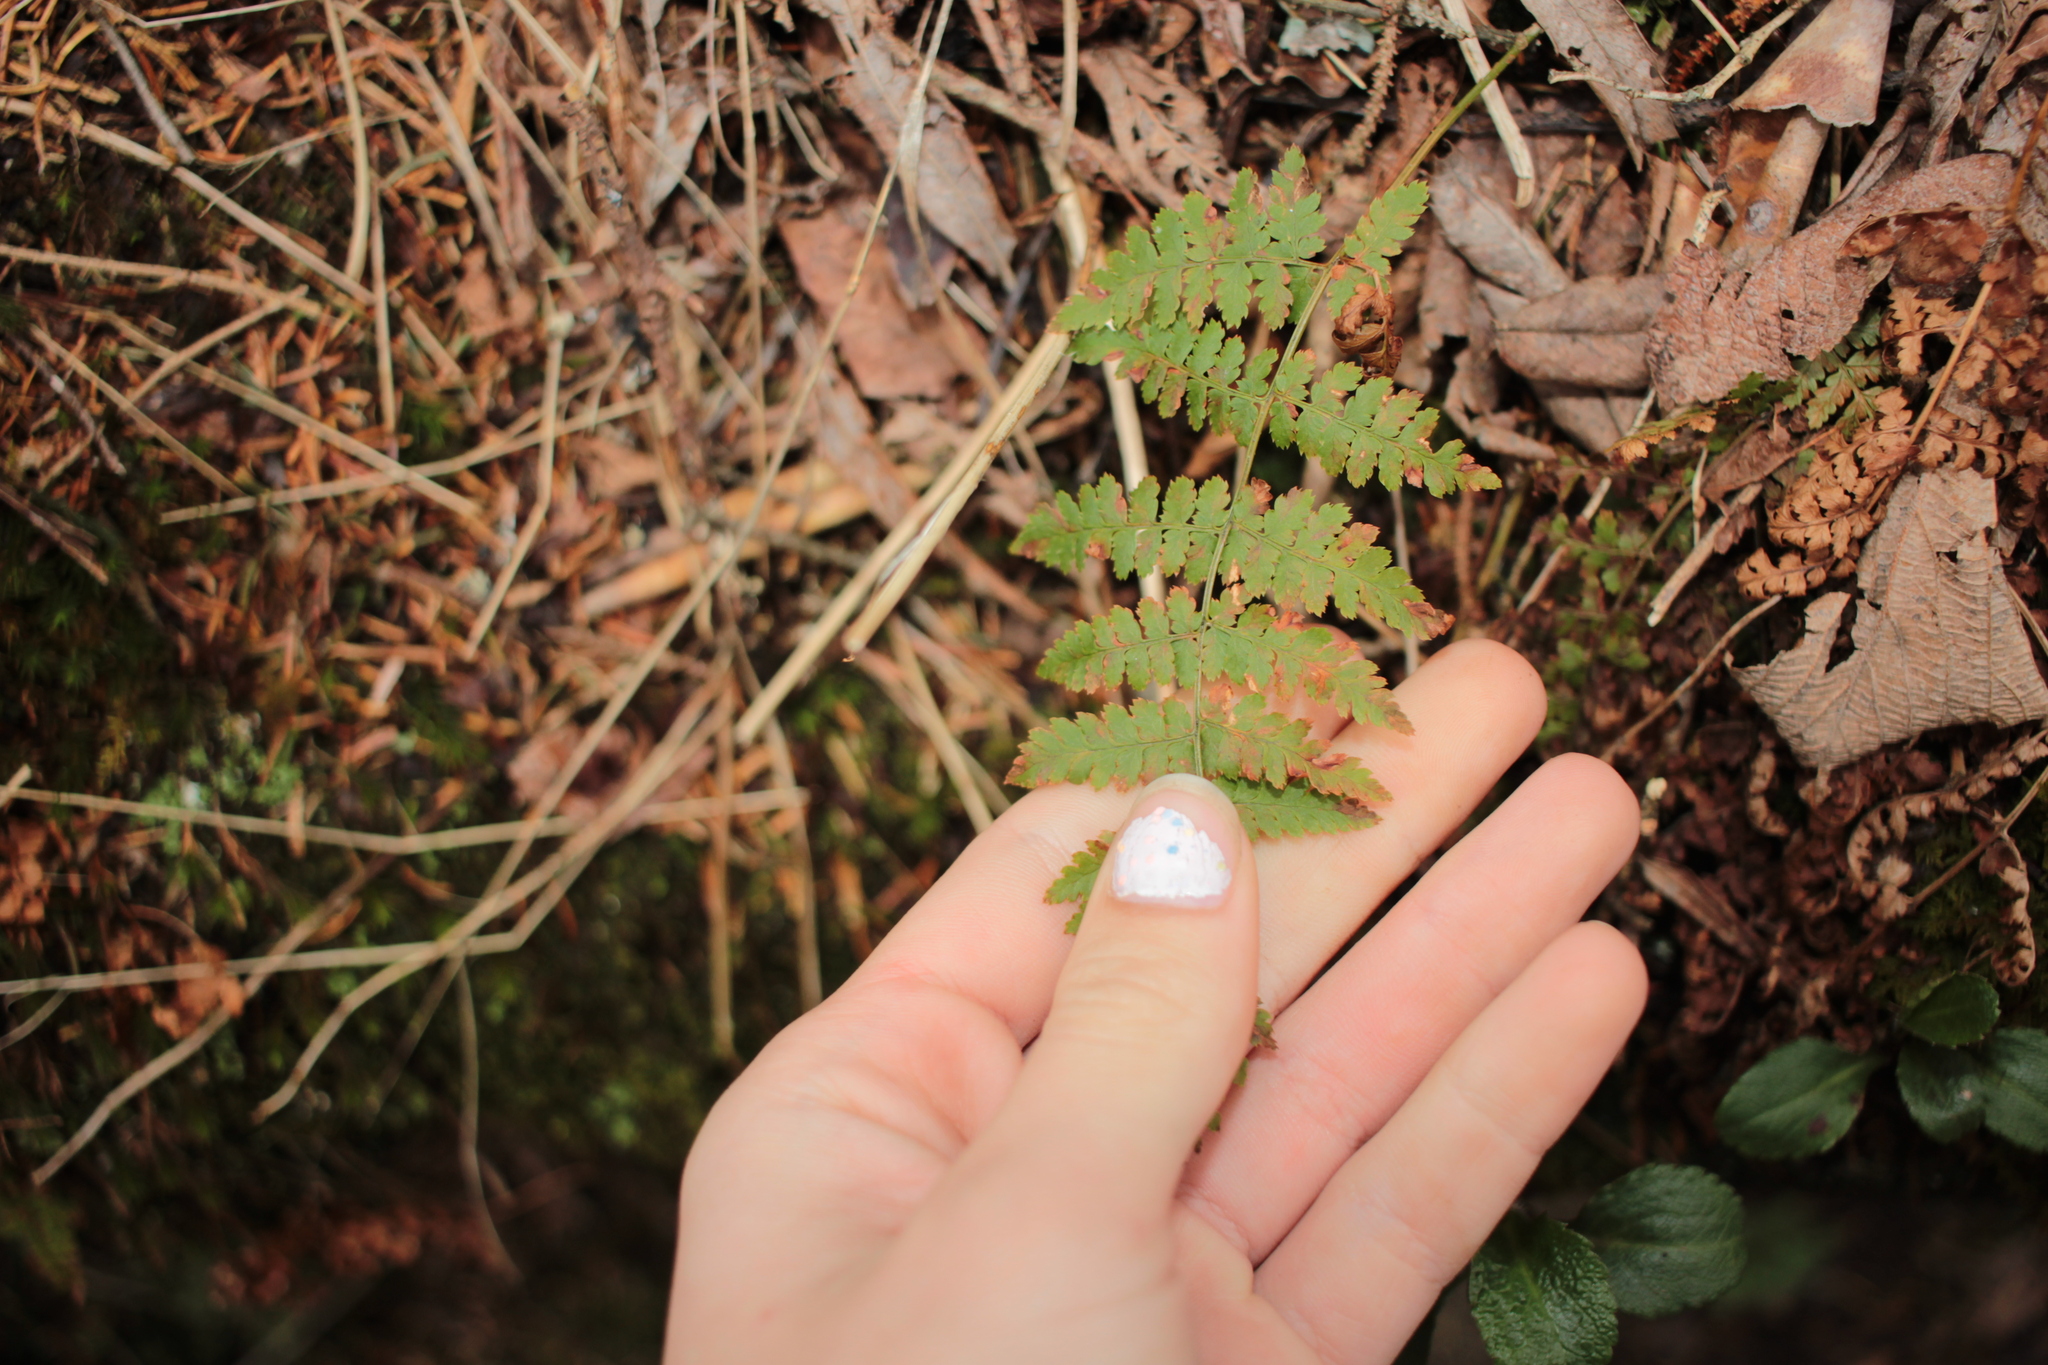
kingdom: Plantae
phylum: Tracheophyta
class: Polypodiopsida
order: Polypodiales
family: Dryopteridaceae
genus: Dryopteris
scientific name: Dryopteris intermedia
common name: Evergreen wood fern
